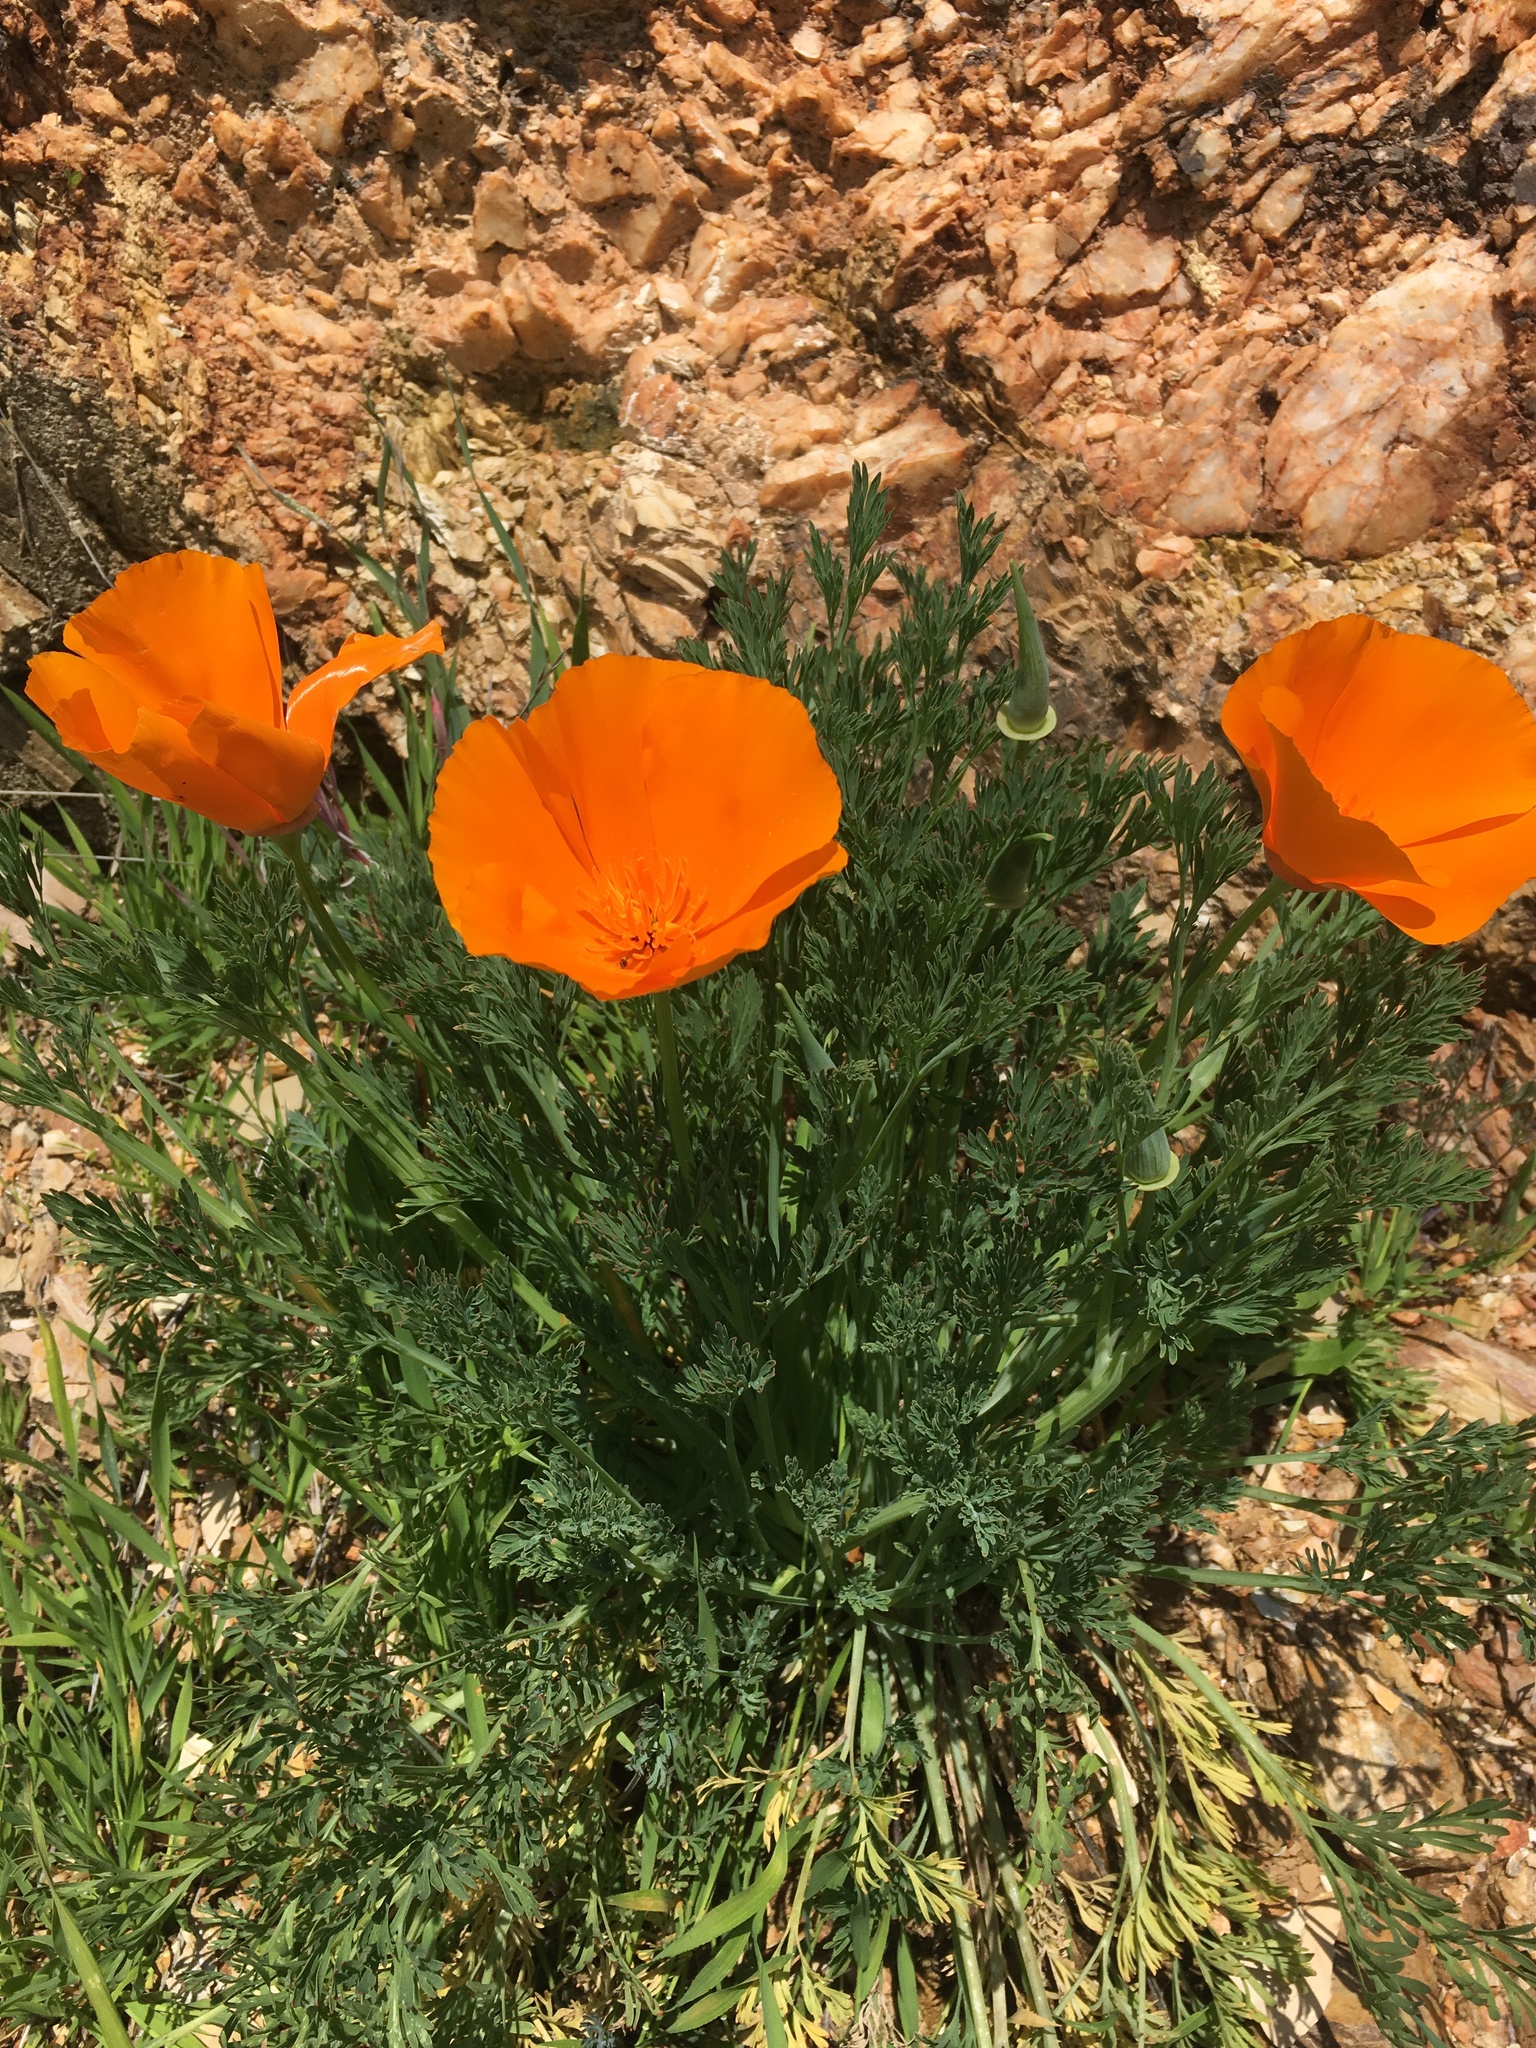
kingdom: Plantae
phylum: Tracheophyta
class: Magnoliopsida
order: Ranunculales
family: Papaveraceae
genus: Eschscholzia
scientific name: Eschscholzia californica
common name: California poppy
